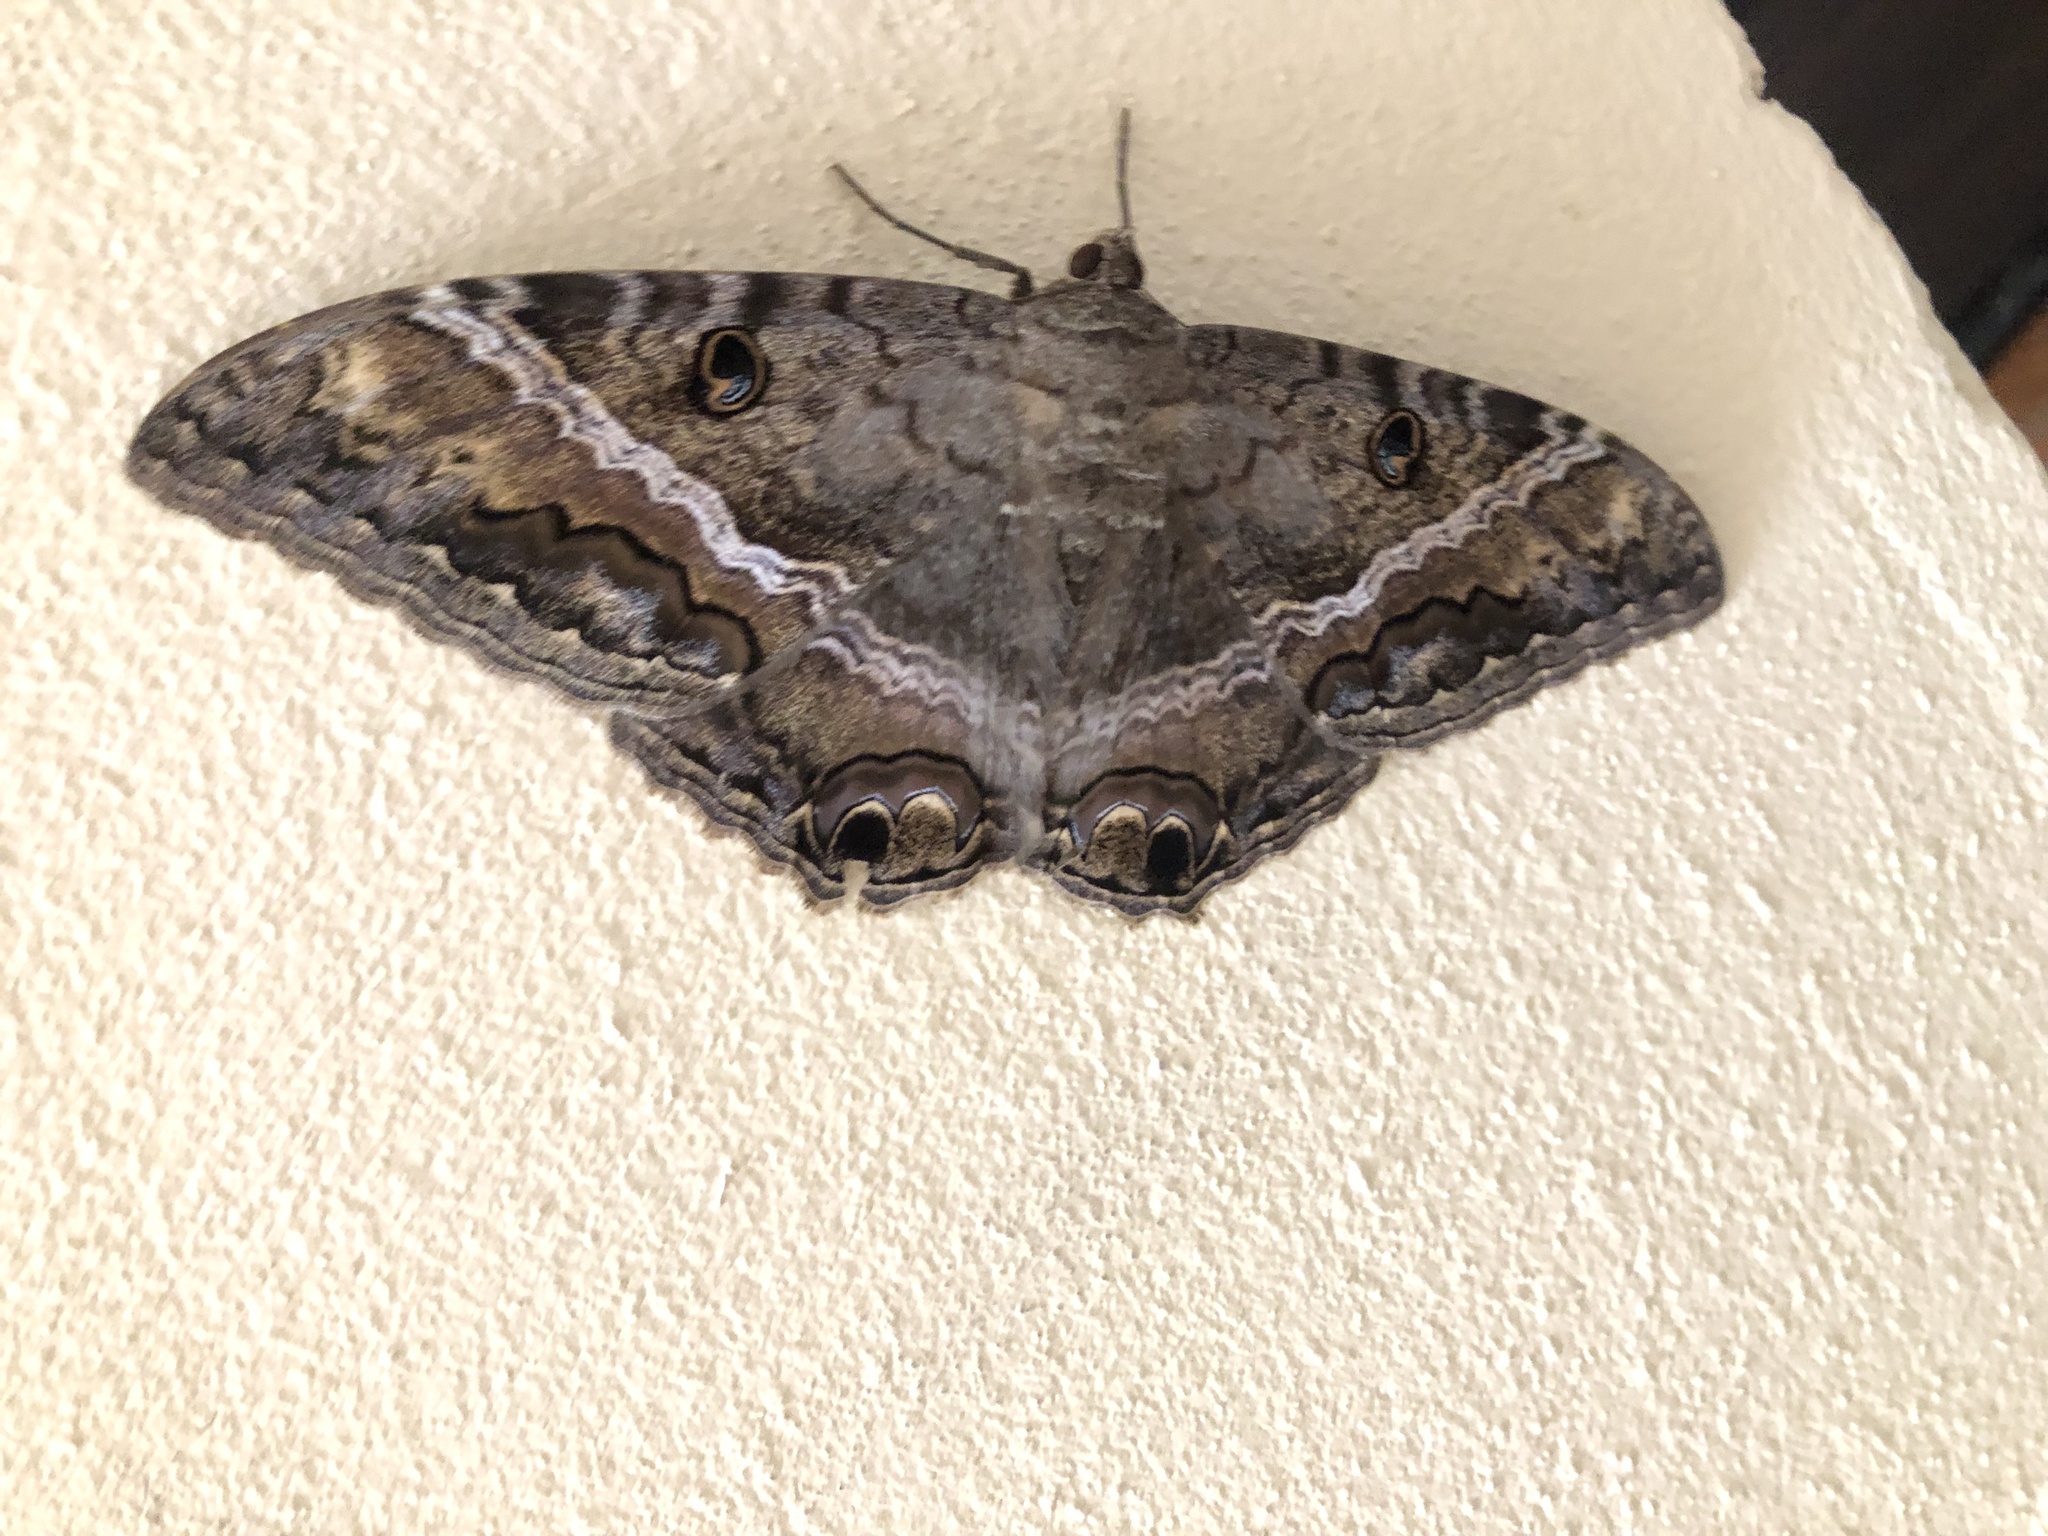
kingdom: Animalia
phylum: Arthropoda
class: Insecta
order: Lepidoptera
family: Erebidae
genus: Ascalapha
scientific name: Ascalapha odorata
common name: Black witch
